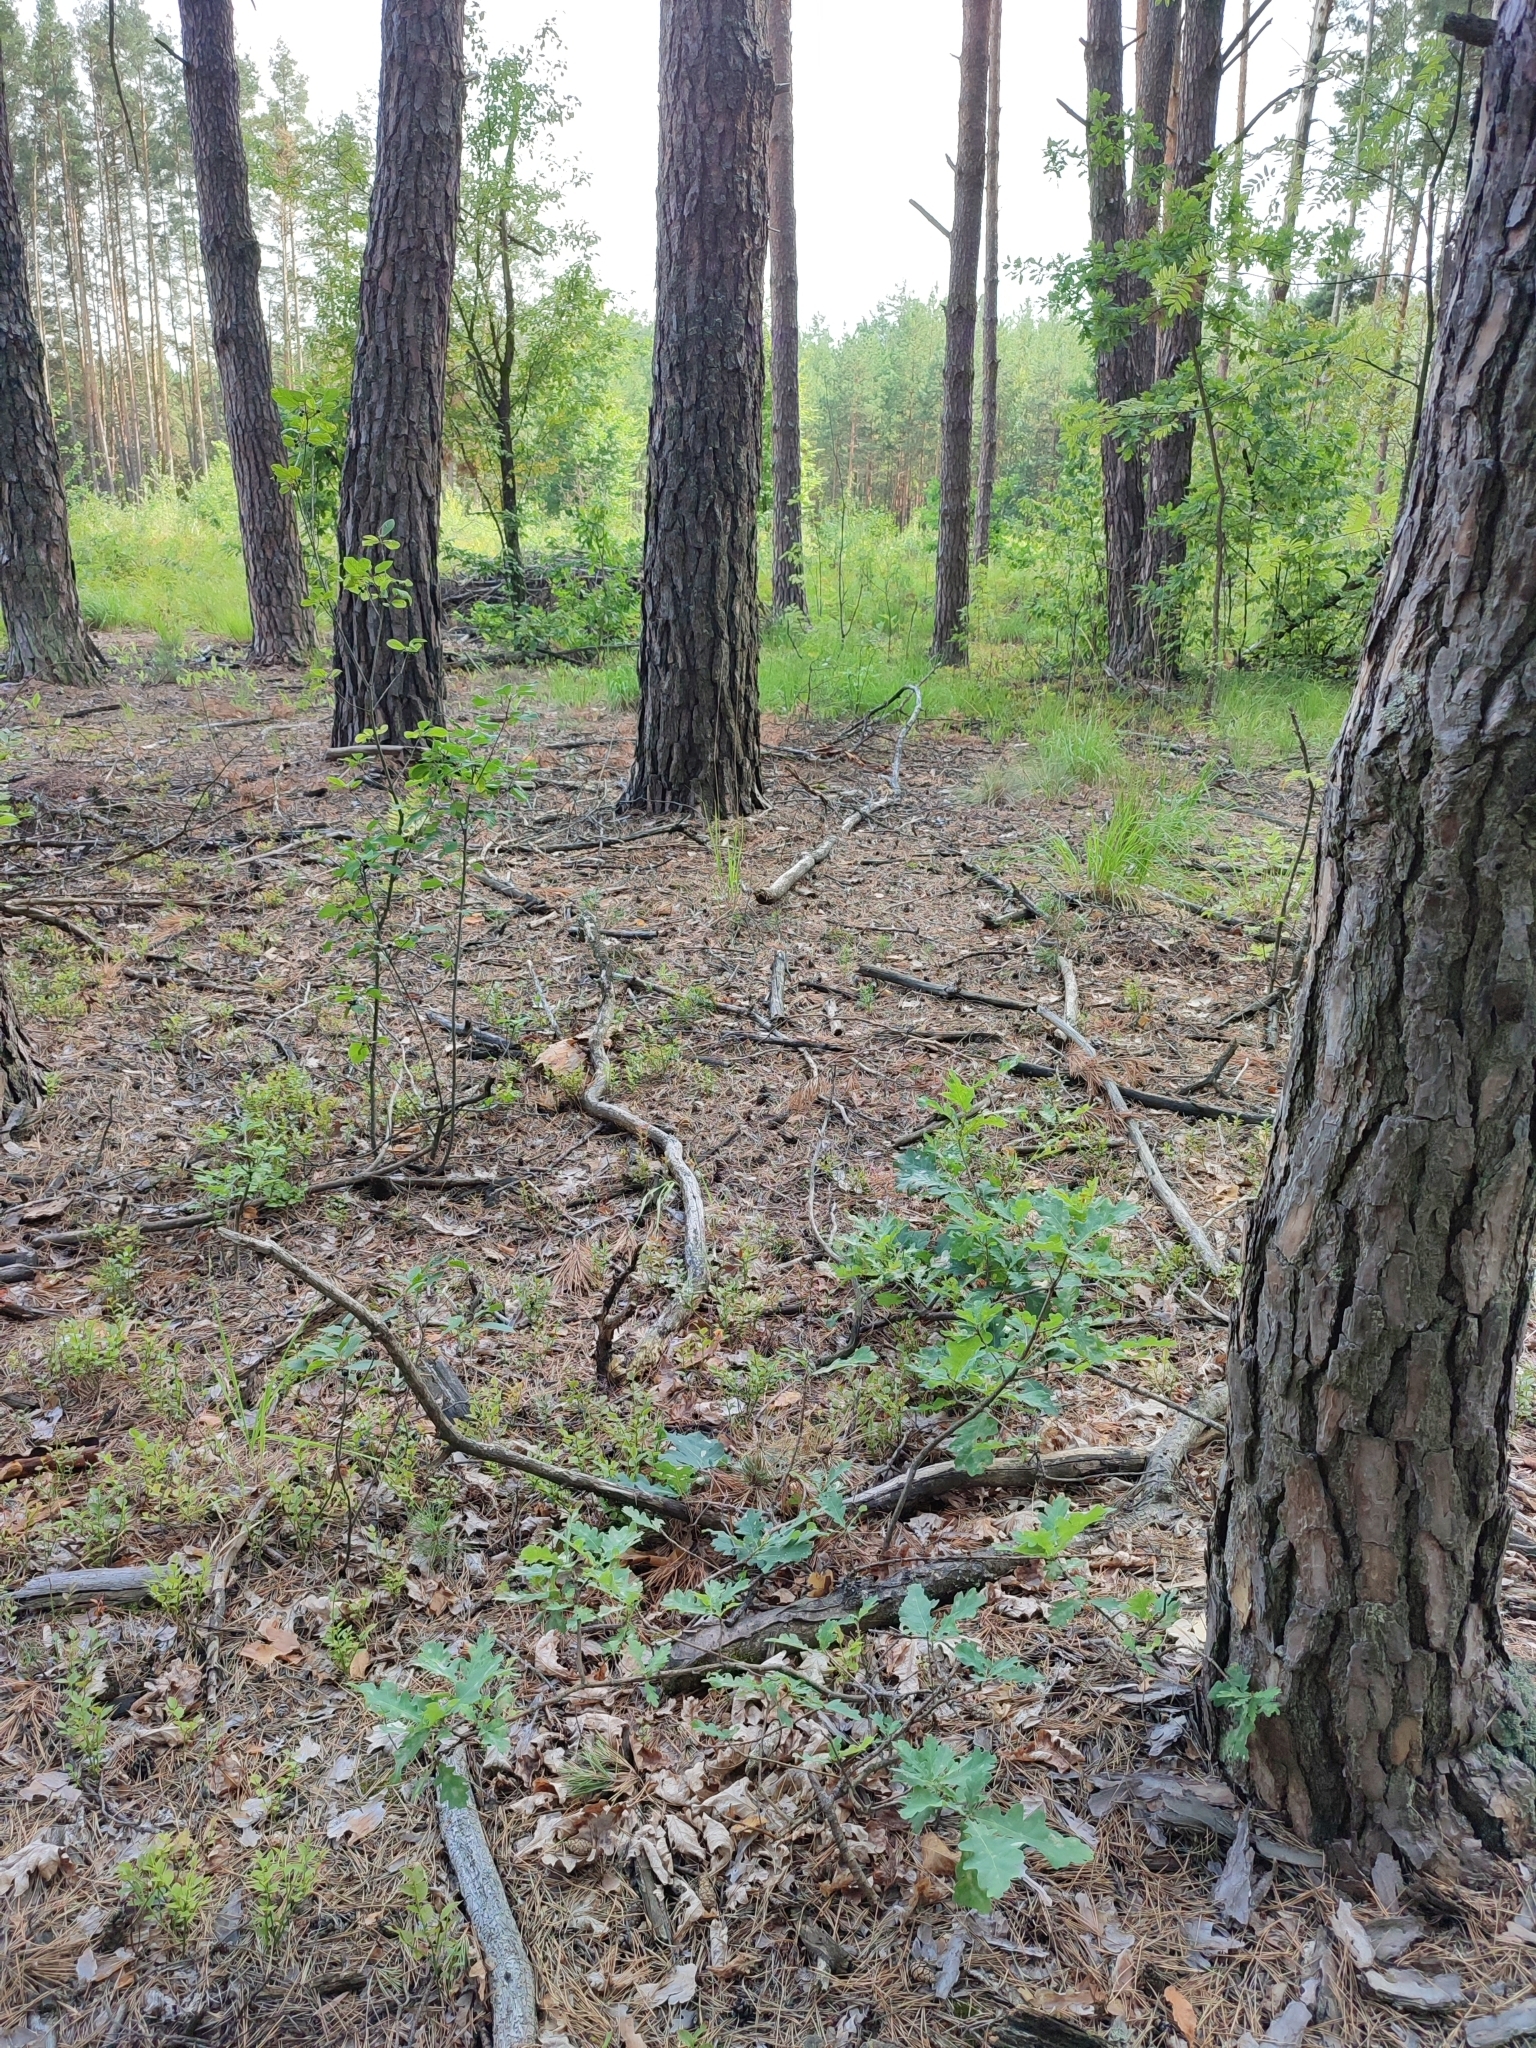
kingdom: Plantae
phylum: Tracheophyta
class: Magnoliopsida
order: Fagales
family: Fagaceae
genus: Quercus
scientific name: Quercus robur
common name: Pedunculate oak
